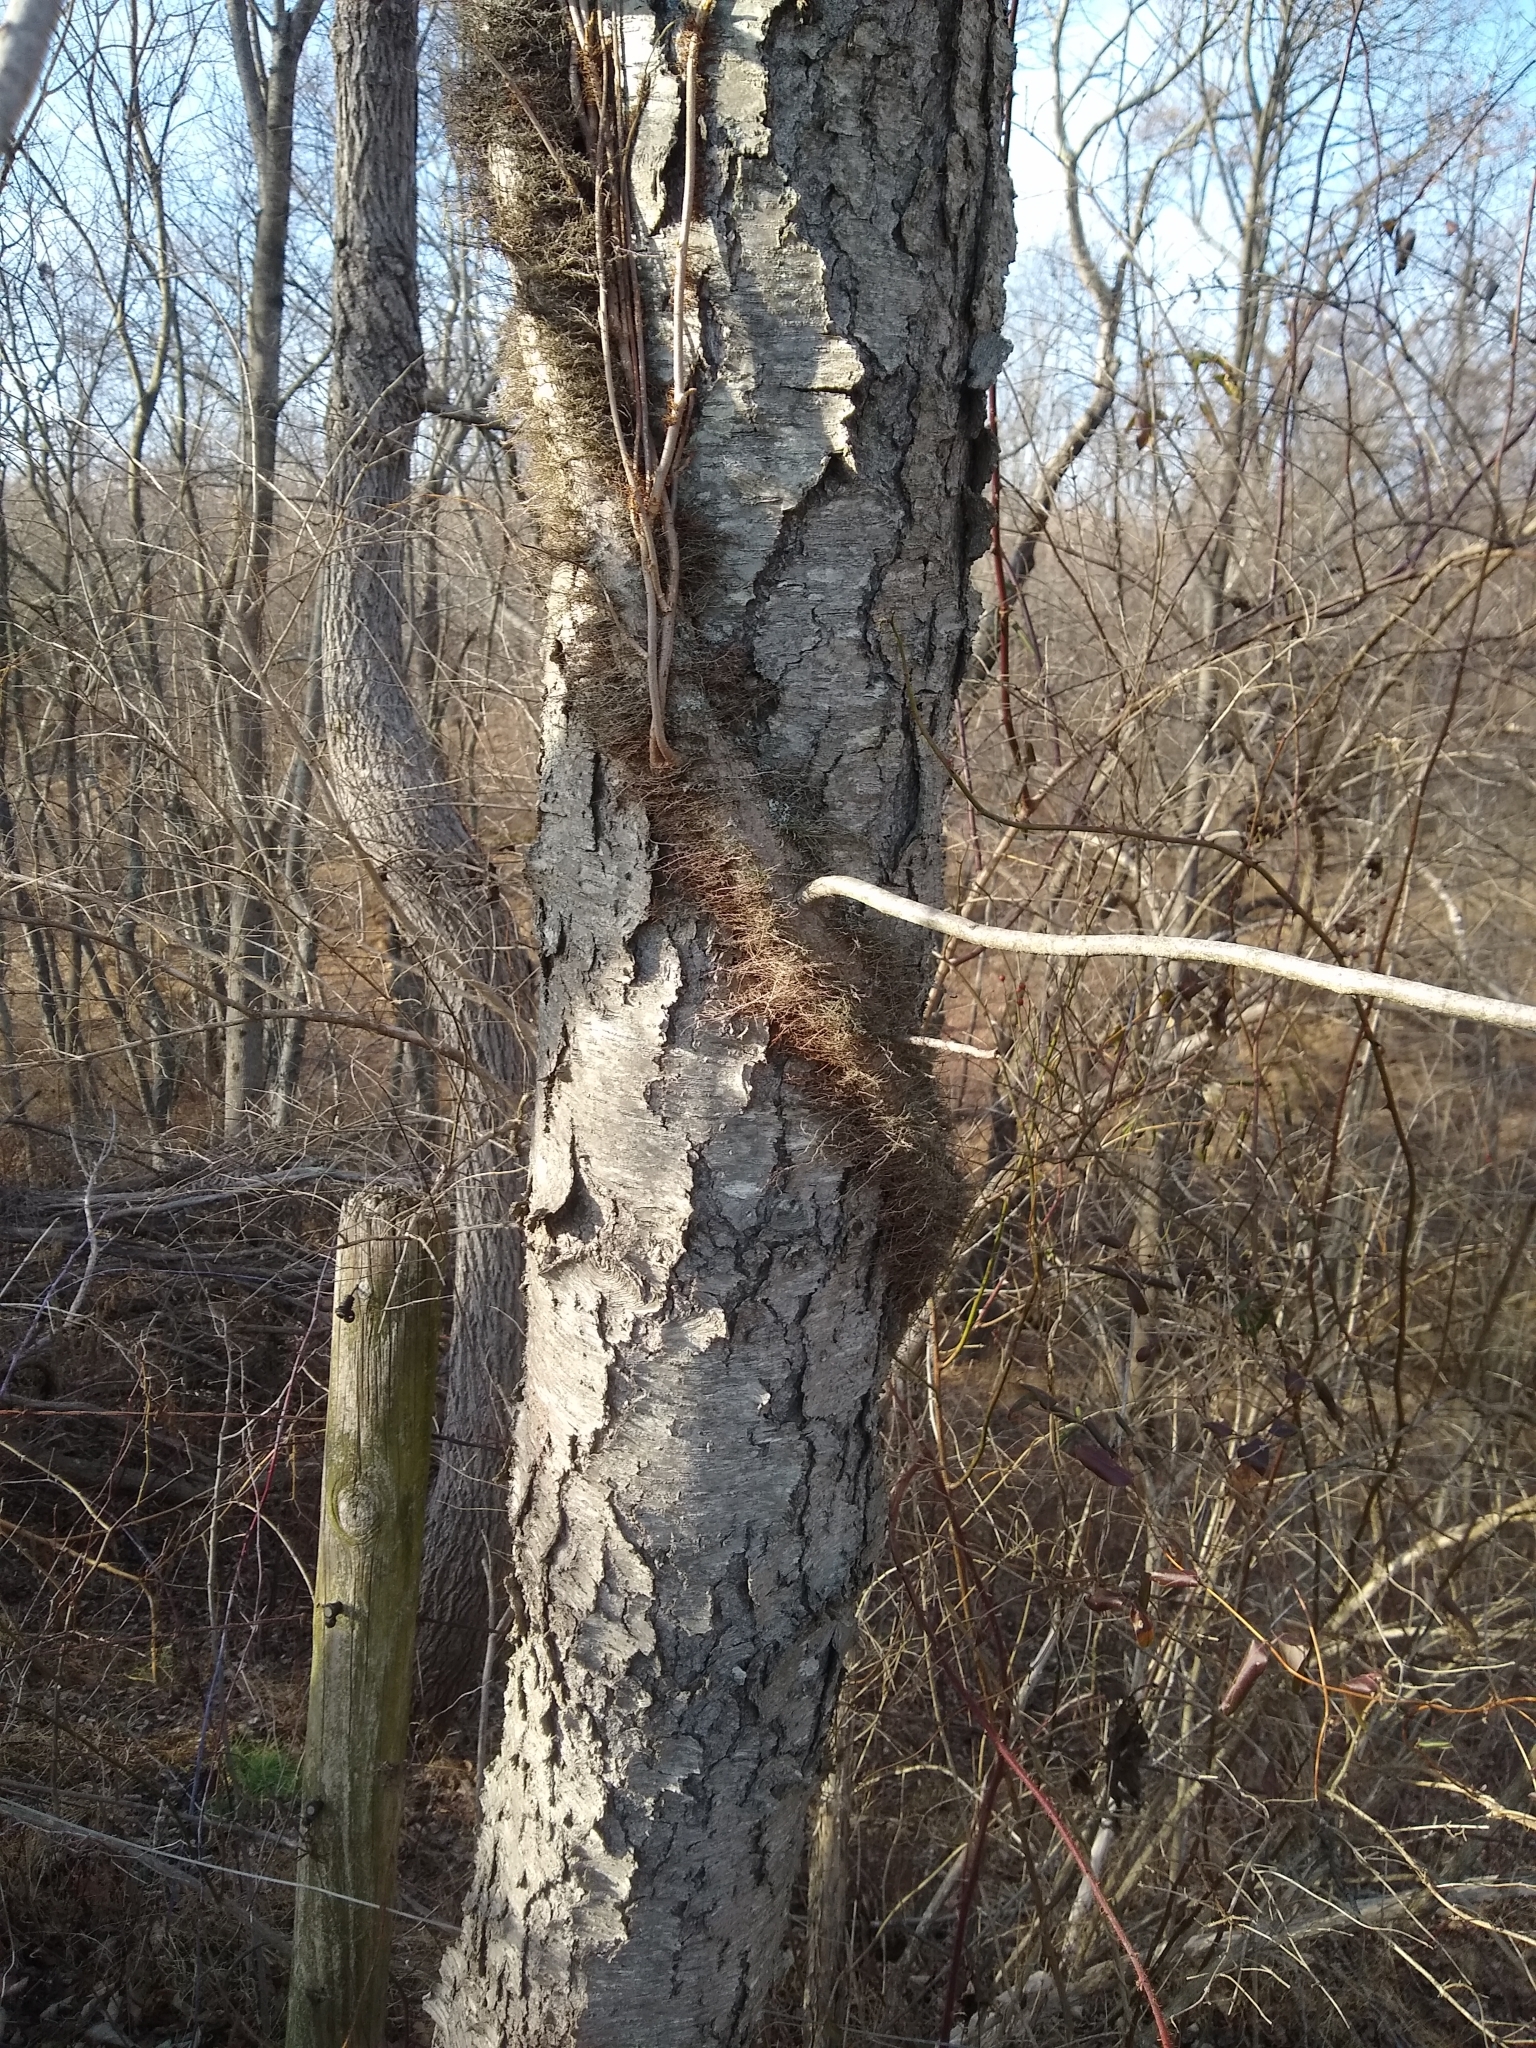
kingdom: Plantae
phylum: Tracheophyta
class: Magnoliopsida
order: Sapindales
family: Anacardiaceae
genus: Toxicodendron
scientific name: Toxicodendron radicans
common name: Poison ivy
